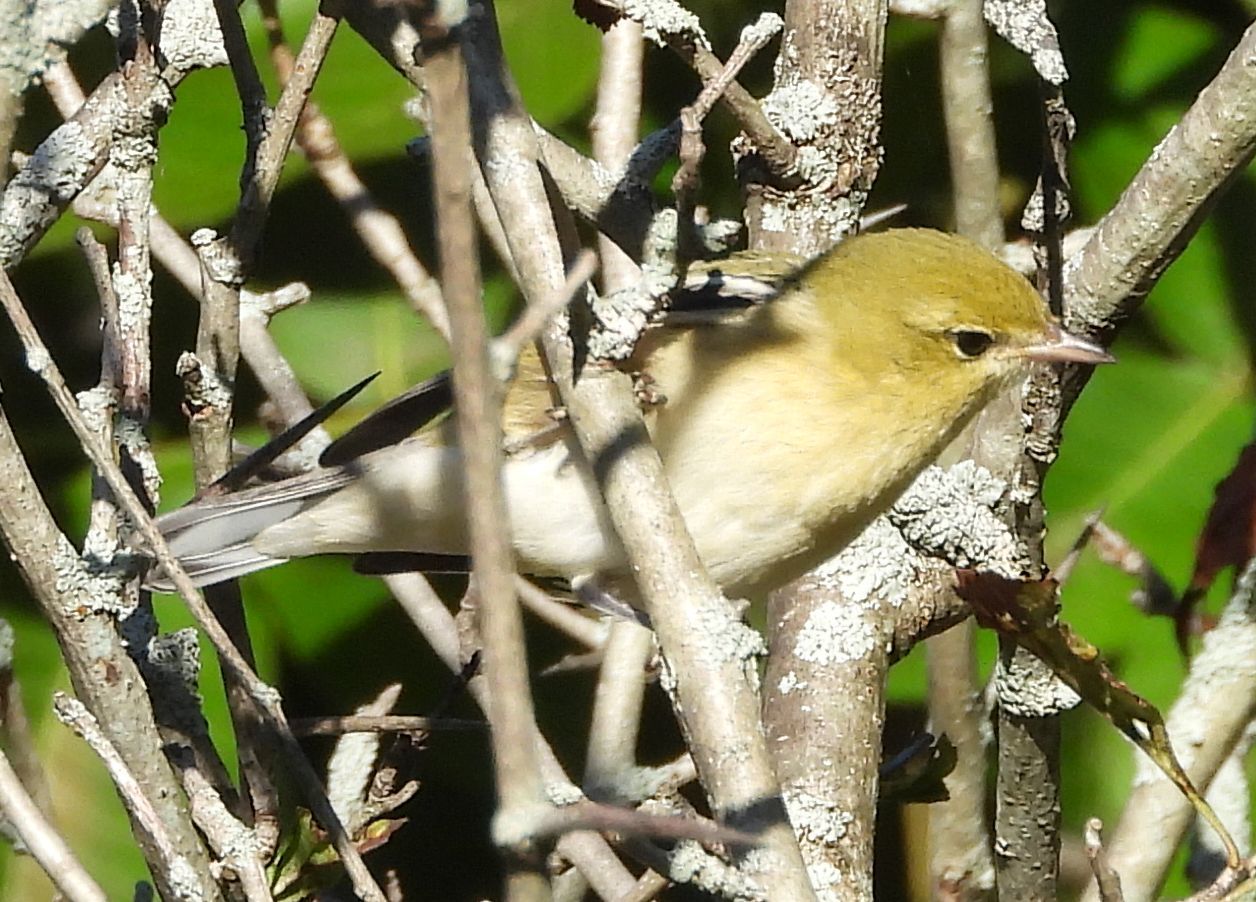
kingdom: Animalia
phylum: Chordata
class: Aves
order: Passeriformes
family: Parulidae
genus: Setophaga
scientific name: Setophaga castanea
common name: Bay-breasted warbler
